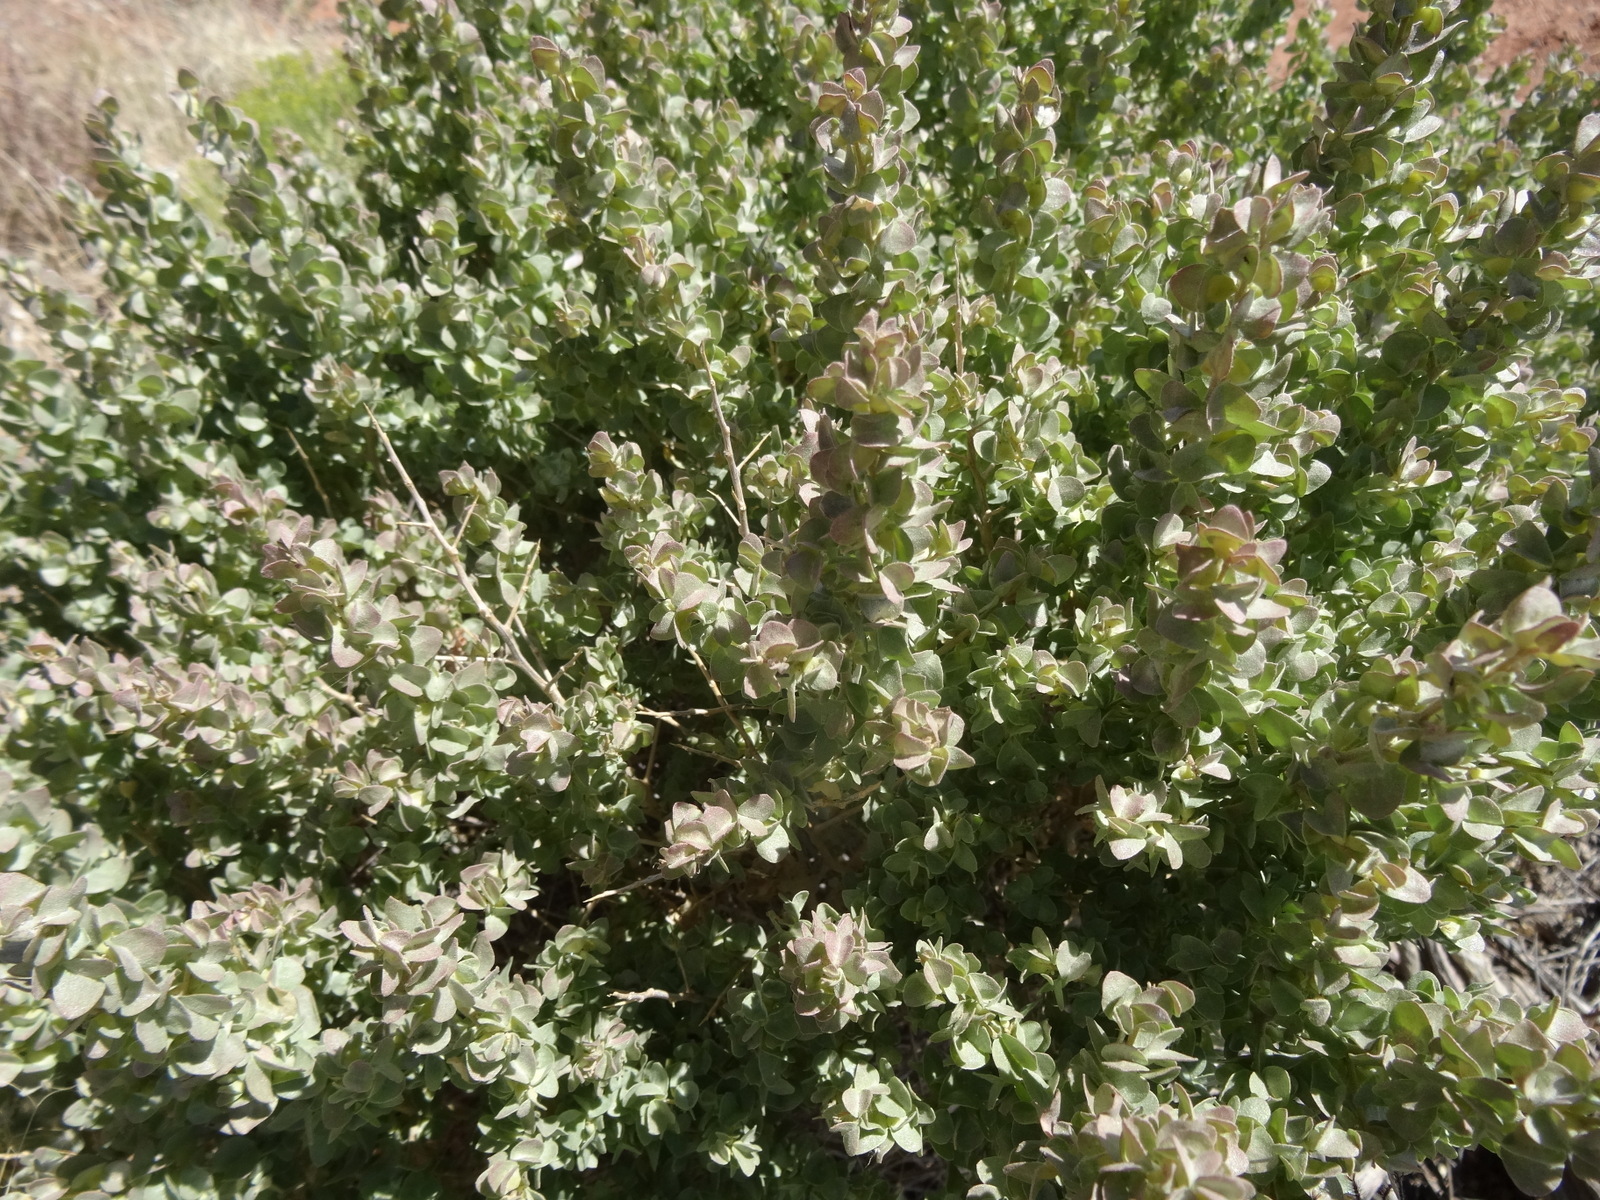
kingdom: Plantae
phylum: Tracheophyta
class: Magnoliopsida
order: Caryophyllales
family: Amaranthaceae
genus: Atriplex
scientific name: Atriplex confertifolia
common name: Shadscale
